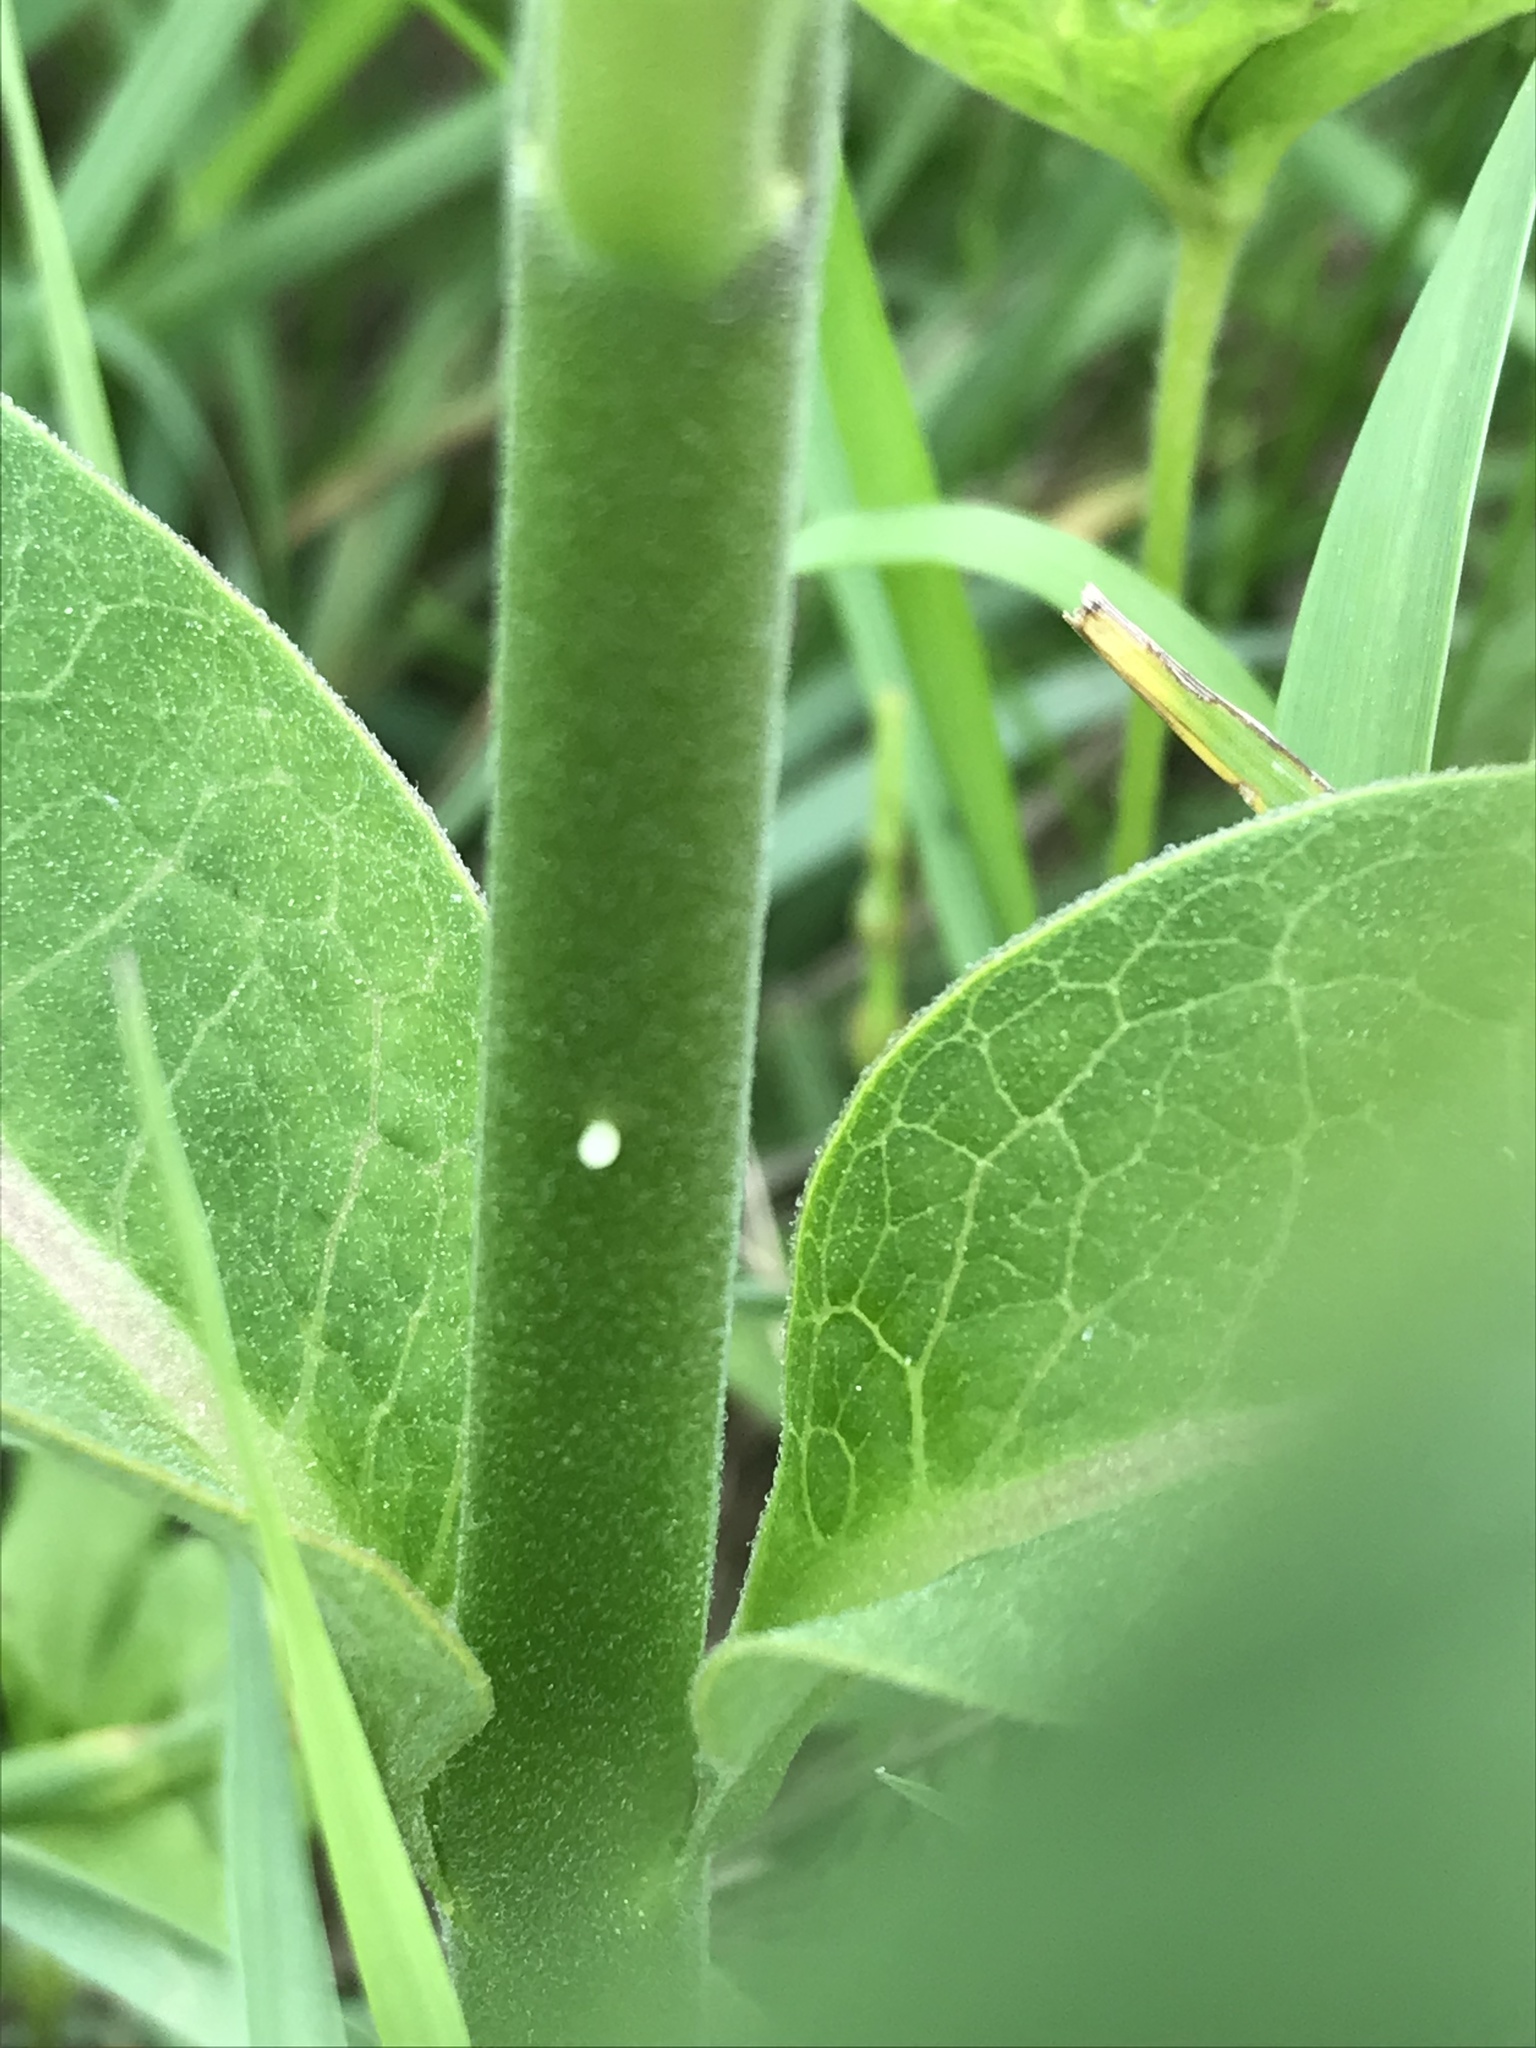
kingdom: Animalia
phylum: Arthropoda
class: Insecta
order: Lepidoptera
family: Nymphalidae
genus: Danaus
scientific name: Danaus plexippus
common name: Monarch
